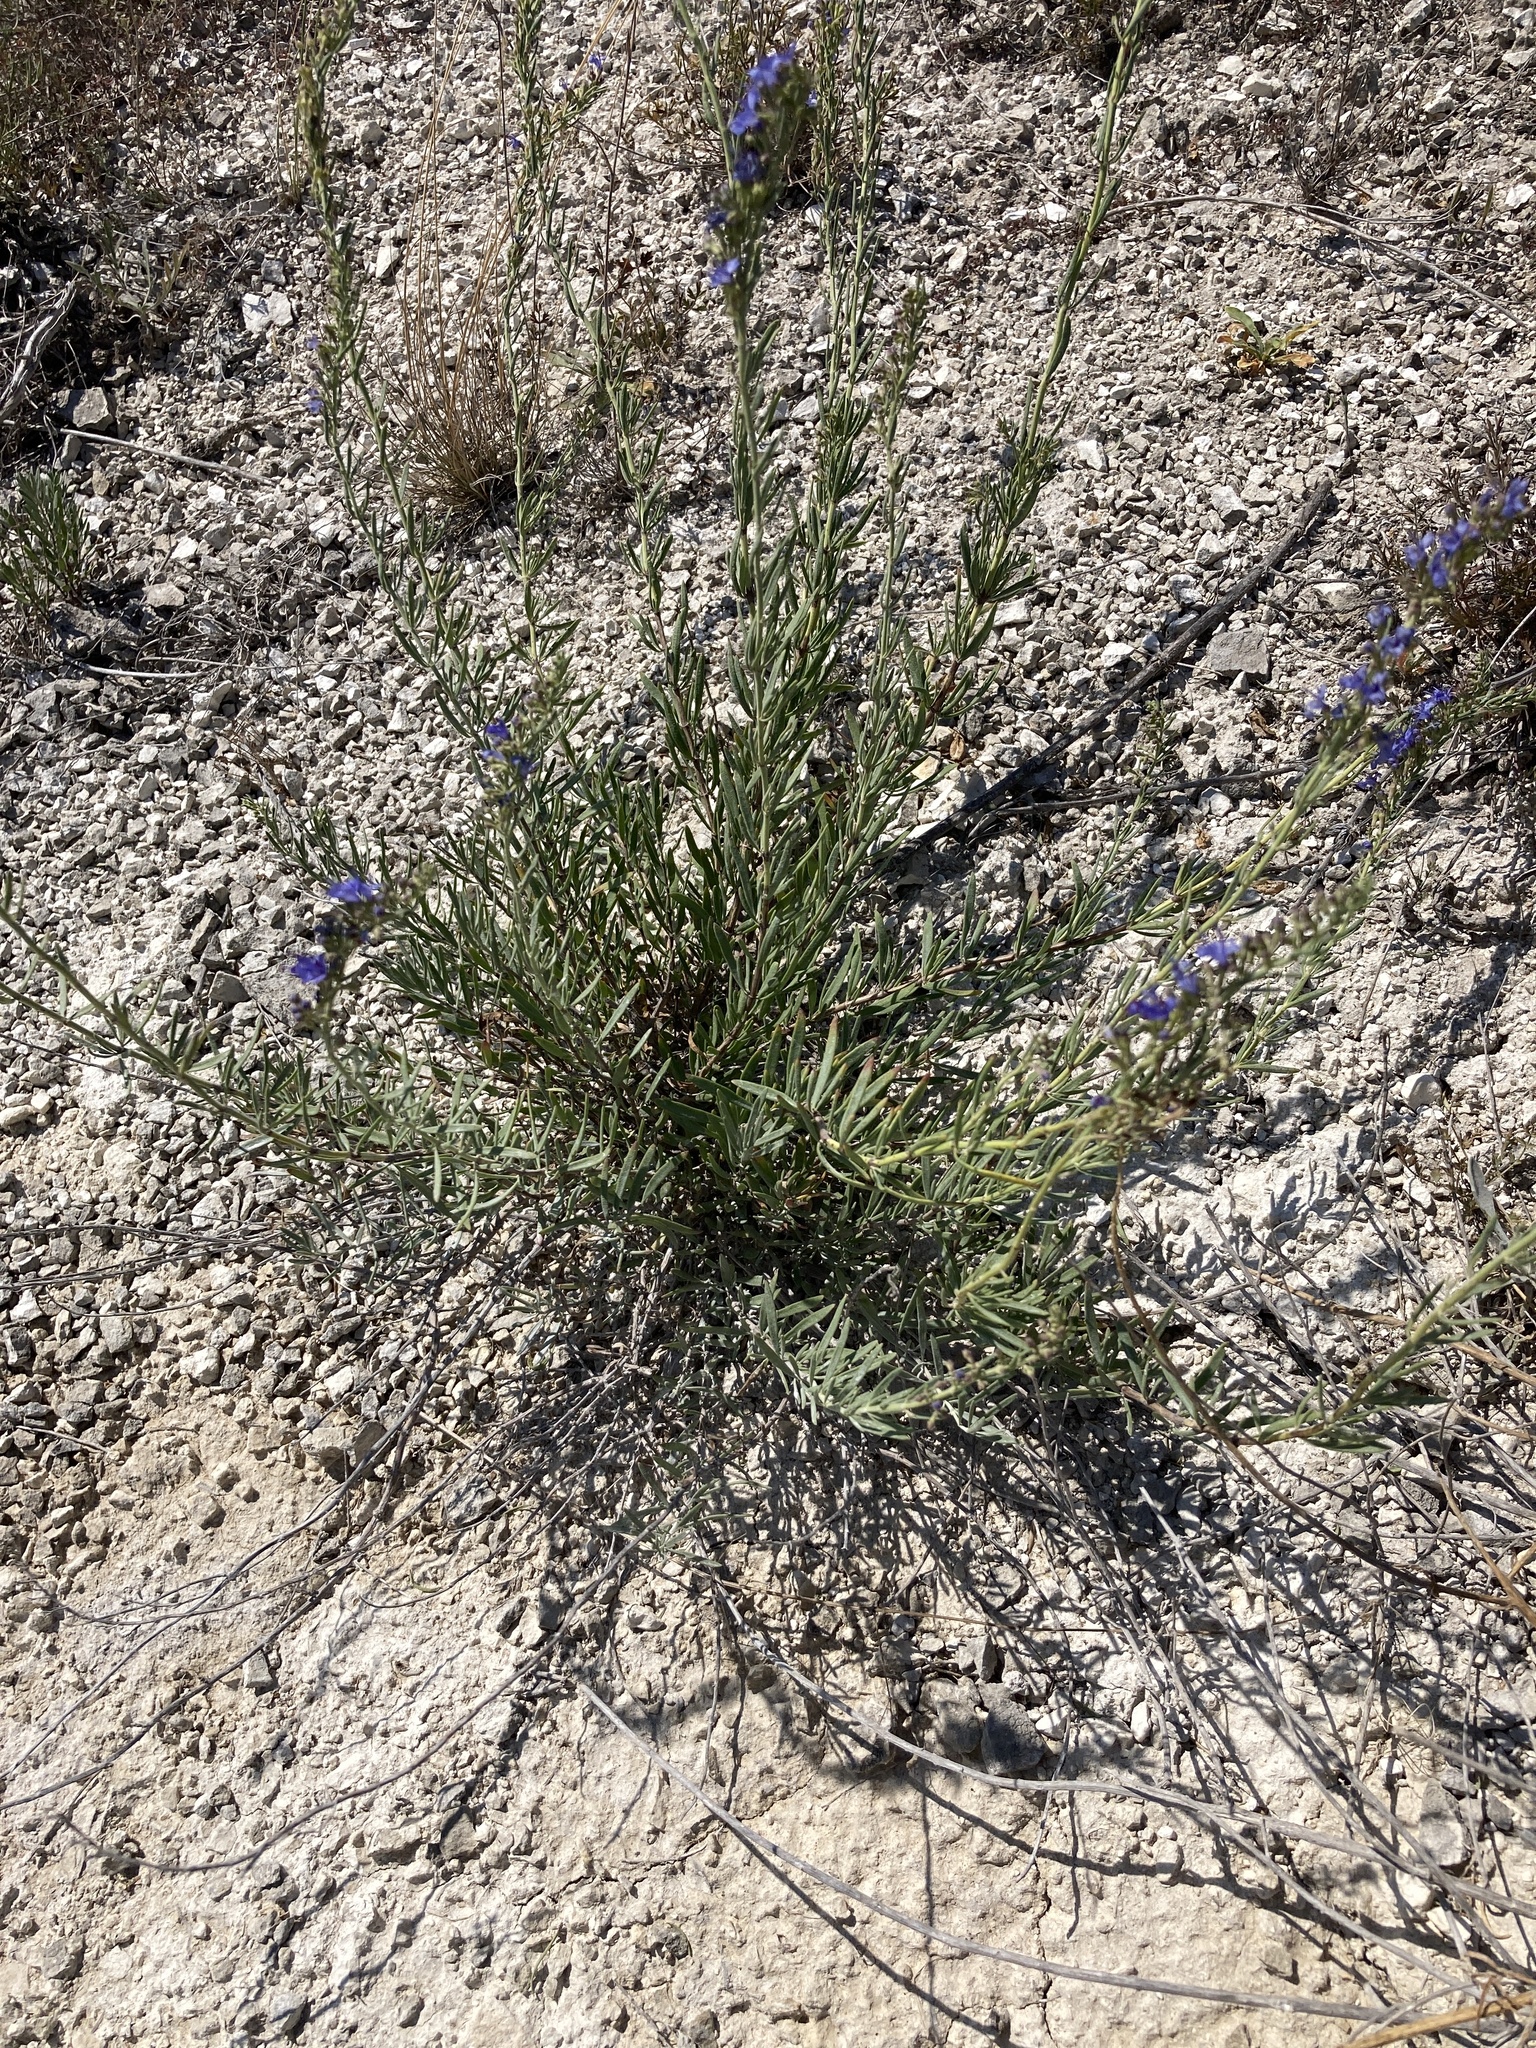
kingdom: Plantae
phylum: Tracheophyta
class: Magnoliopsida
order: Lamiales
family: Lamiaceae
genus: Hyssopus
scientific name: Hyssopus officinalis
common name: Hyssop
